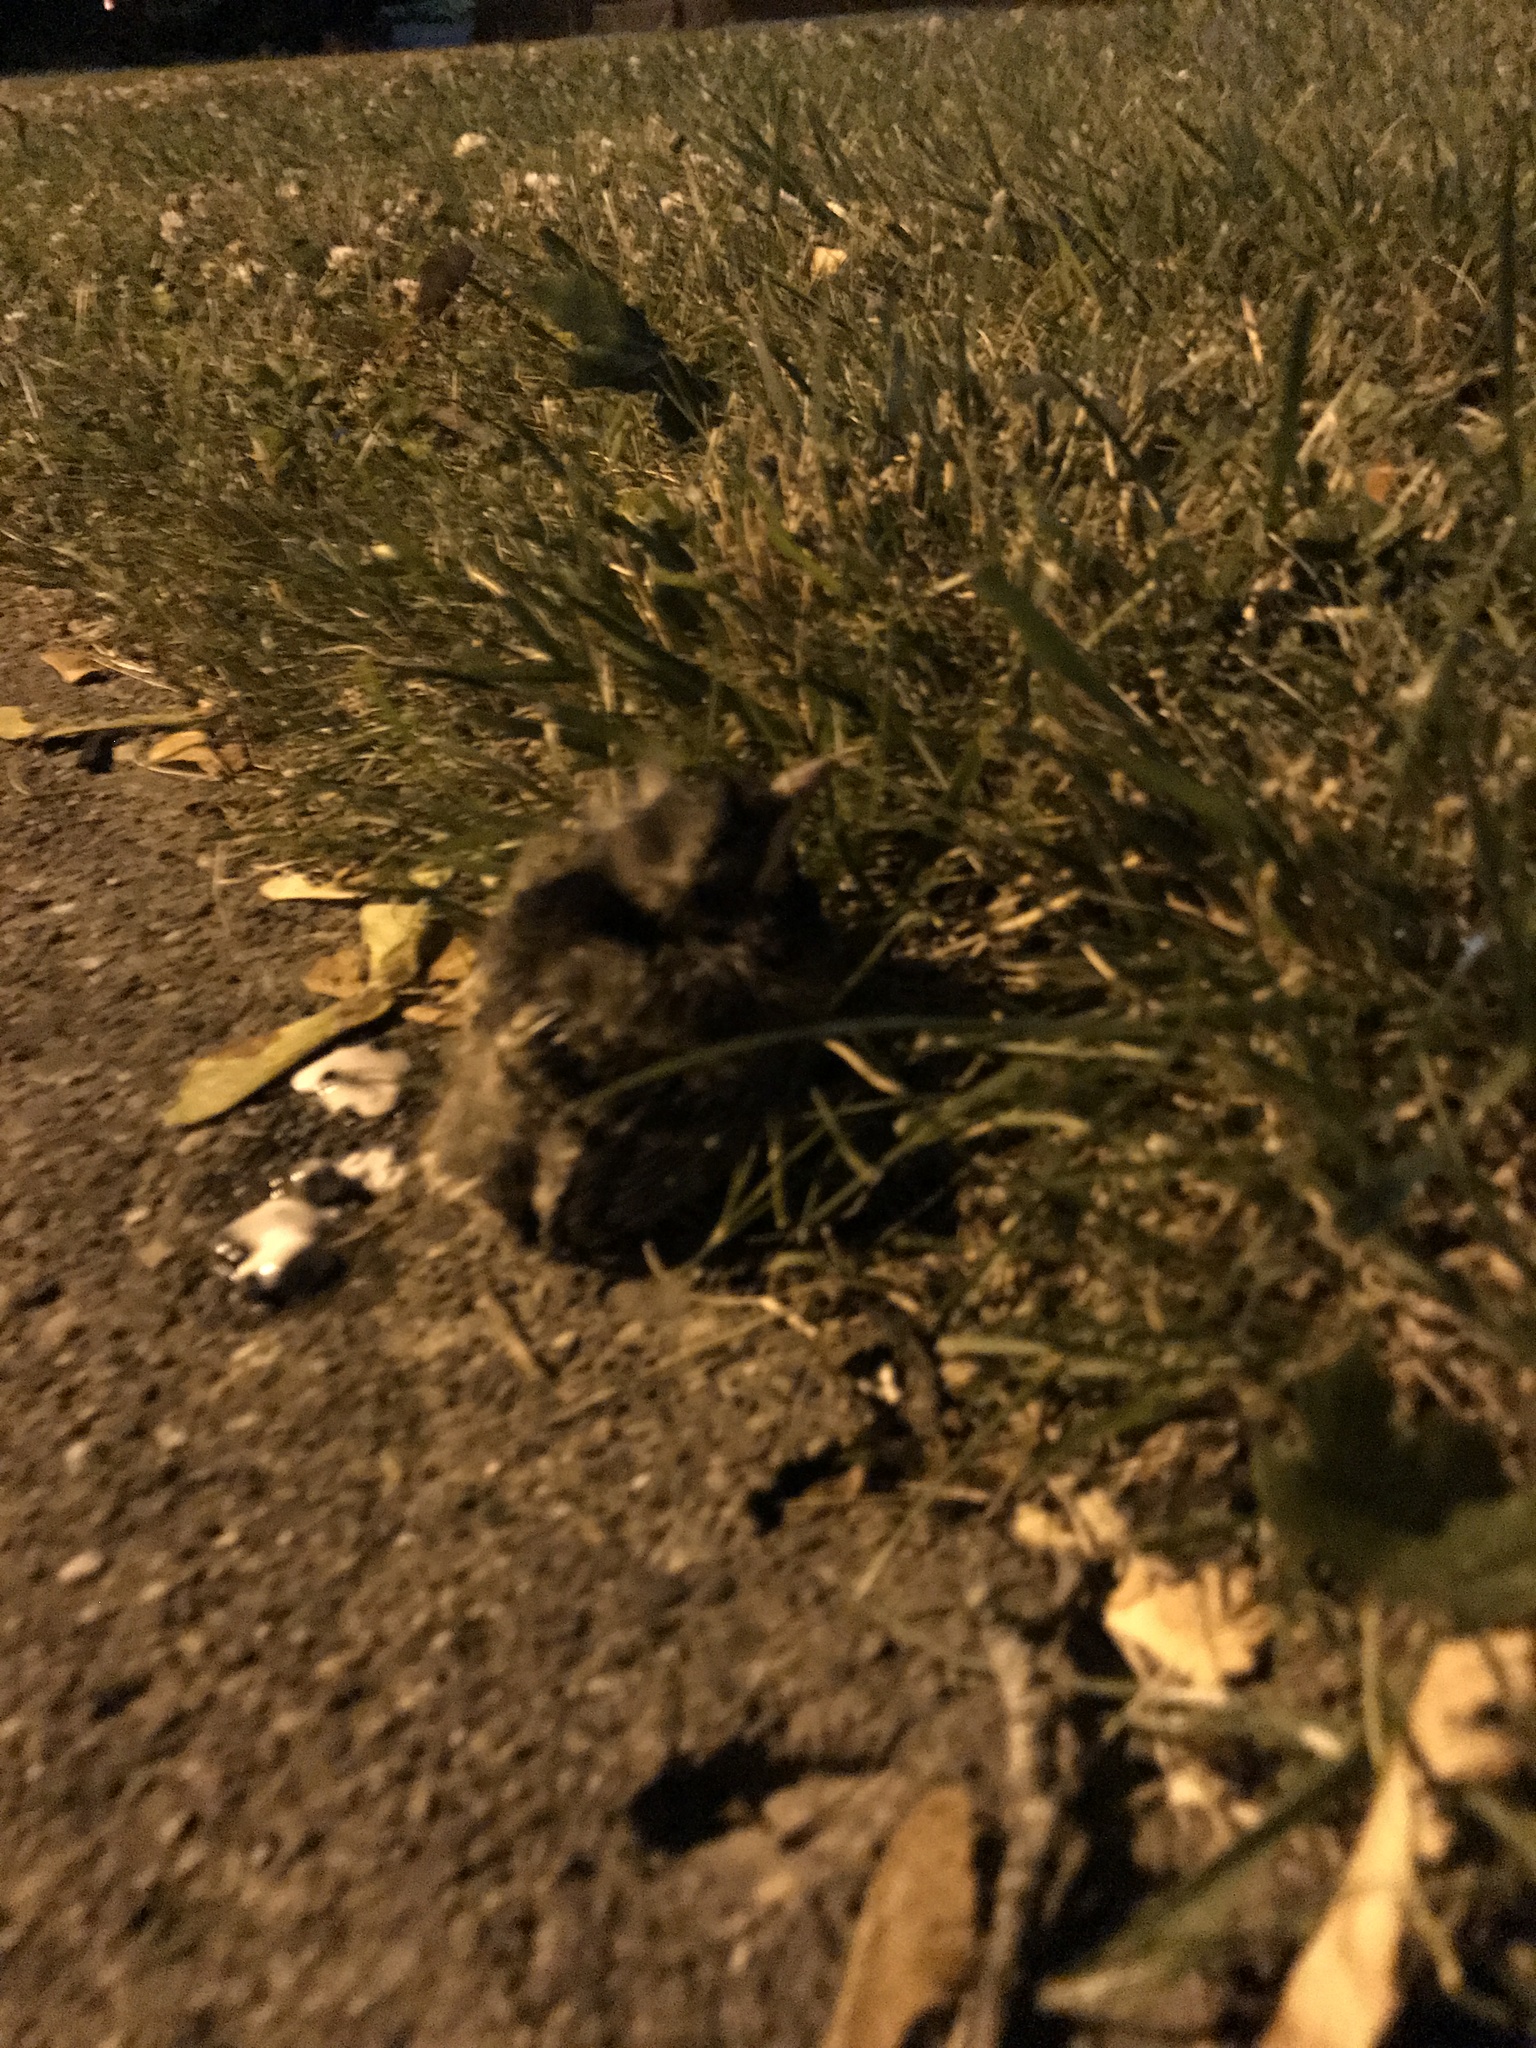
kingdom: Animalia
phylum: Chordata
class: Aves
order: Passeriformes
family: Turdidae
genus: Turdus
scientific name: Turdus migratorius
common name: American robin
